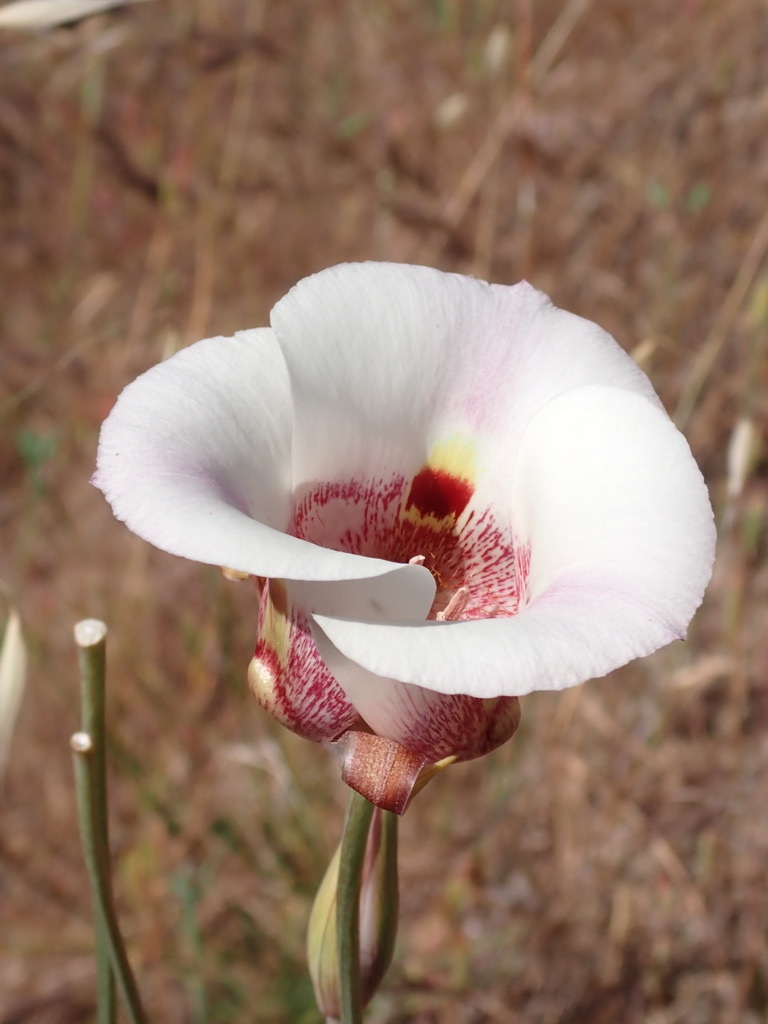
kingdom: Plantae
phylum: Tracheophyta
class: Liliopsida
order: Liliales
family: Liliaceae
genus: Calochortus
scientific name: Calochortus argillosus
